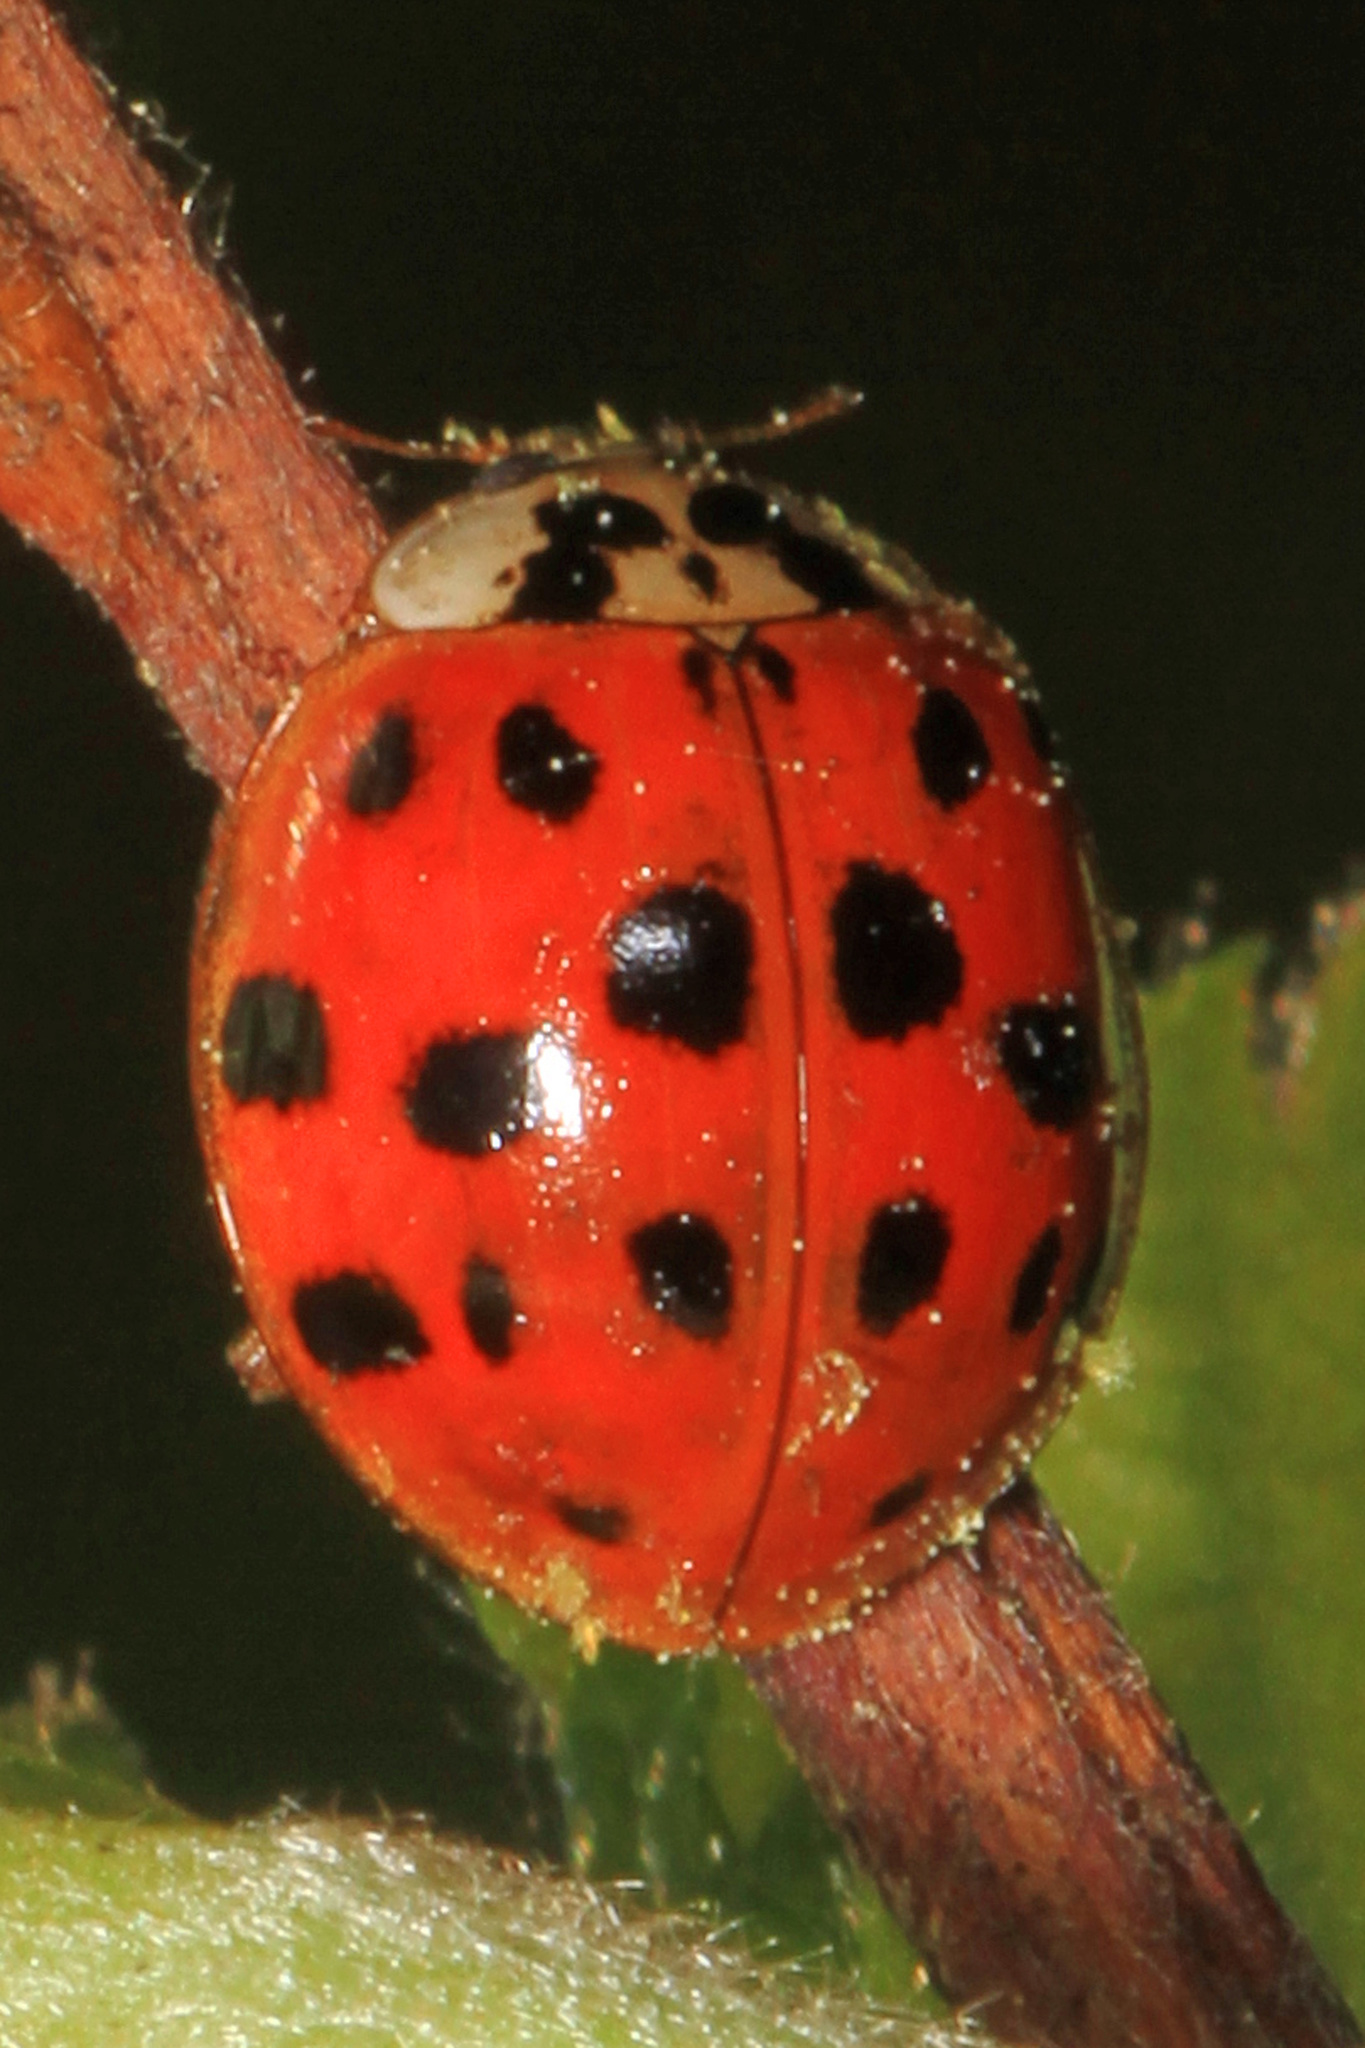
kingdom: Animalia
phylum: Arthropoda
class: Insecta
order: Coleoptera
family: Coccinellidae
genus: Harmonia
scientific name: Harmonia axyridis
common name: Harlequin ladybird
